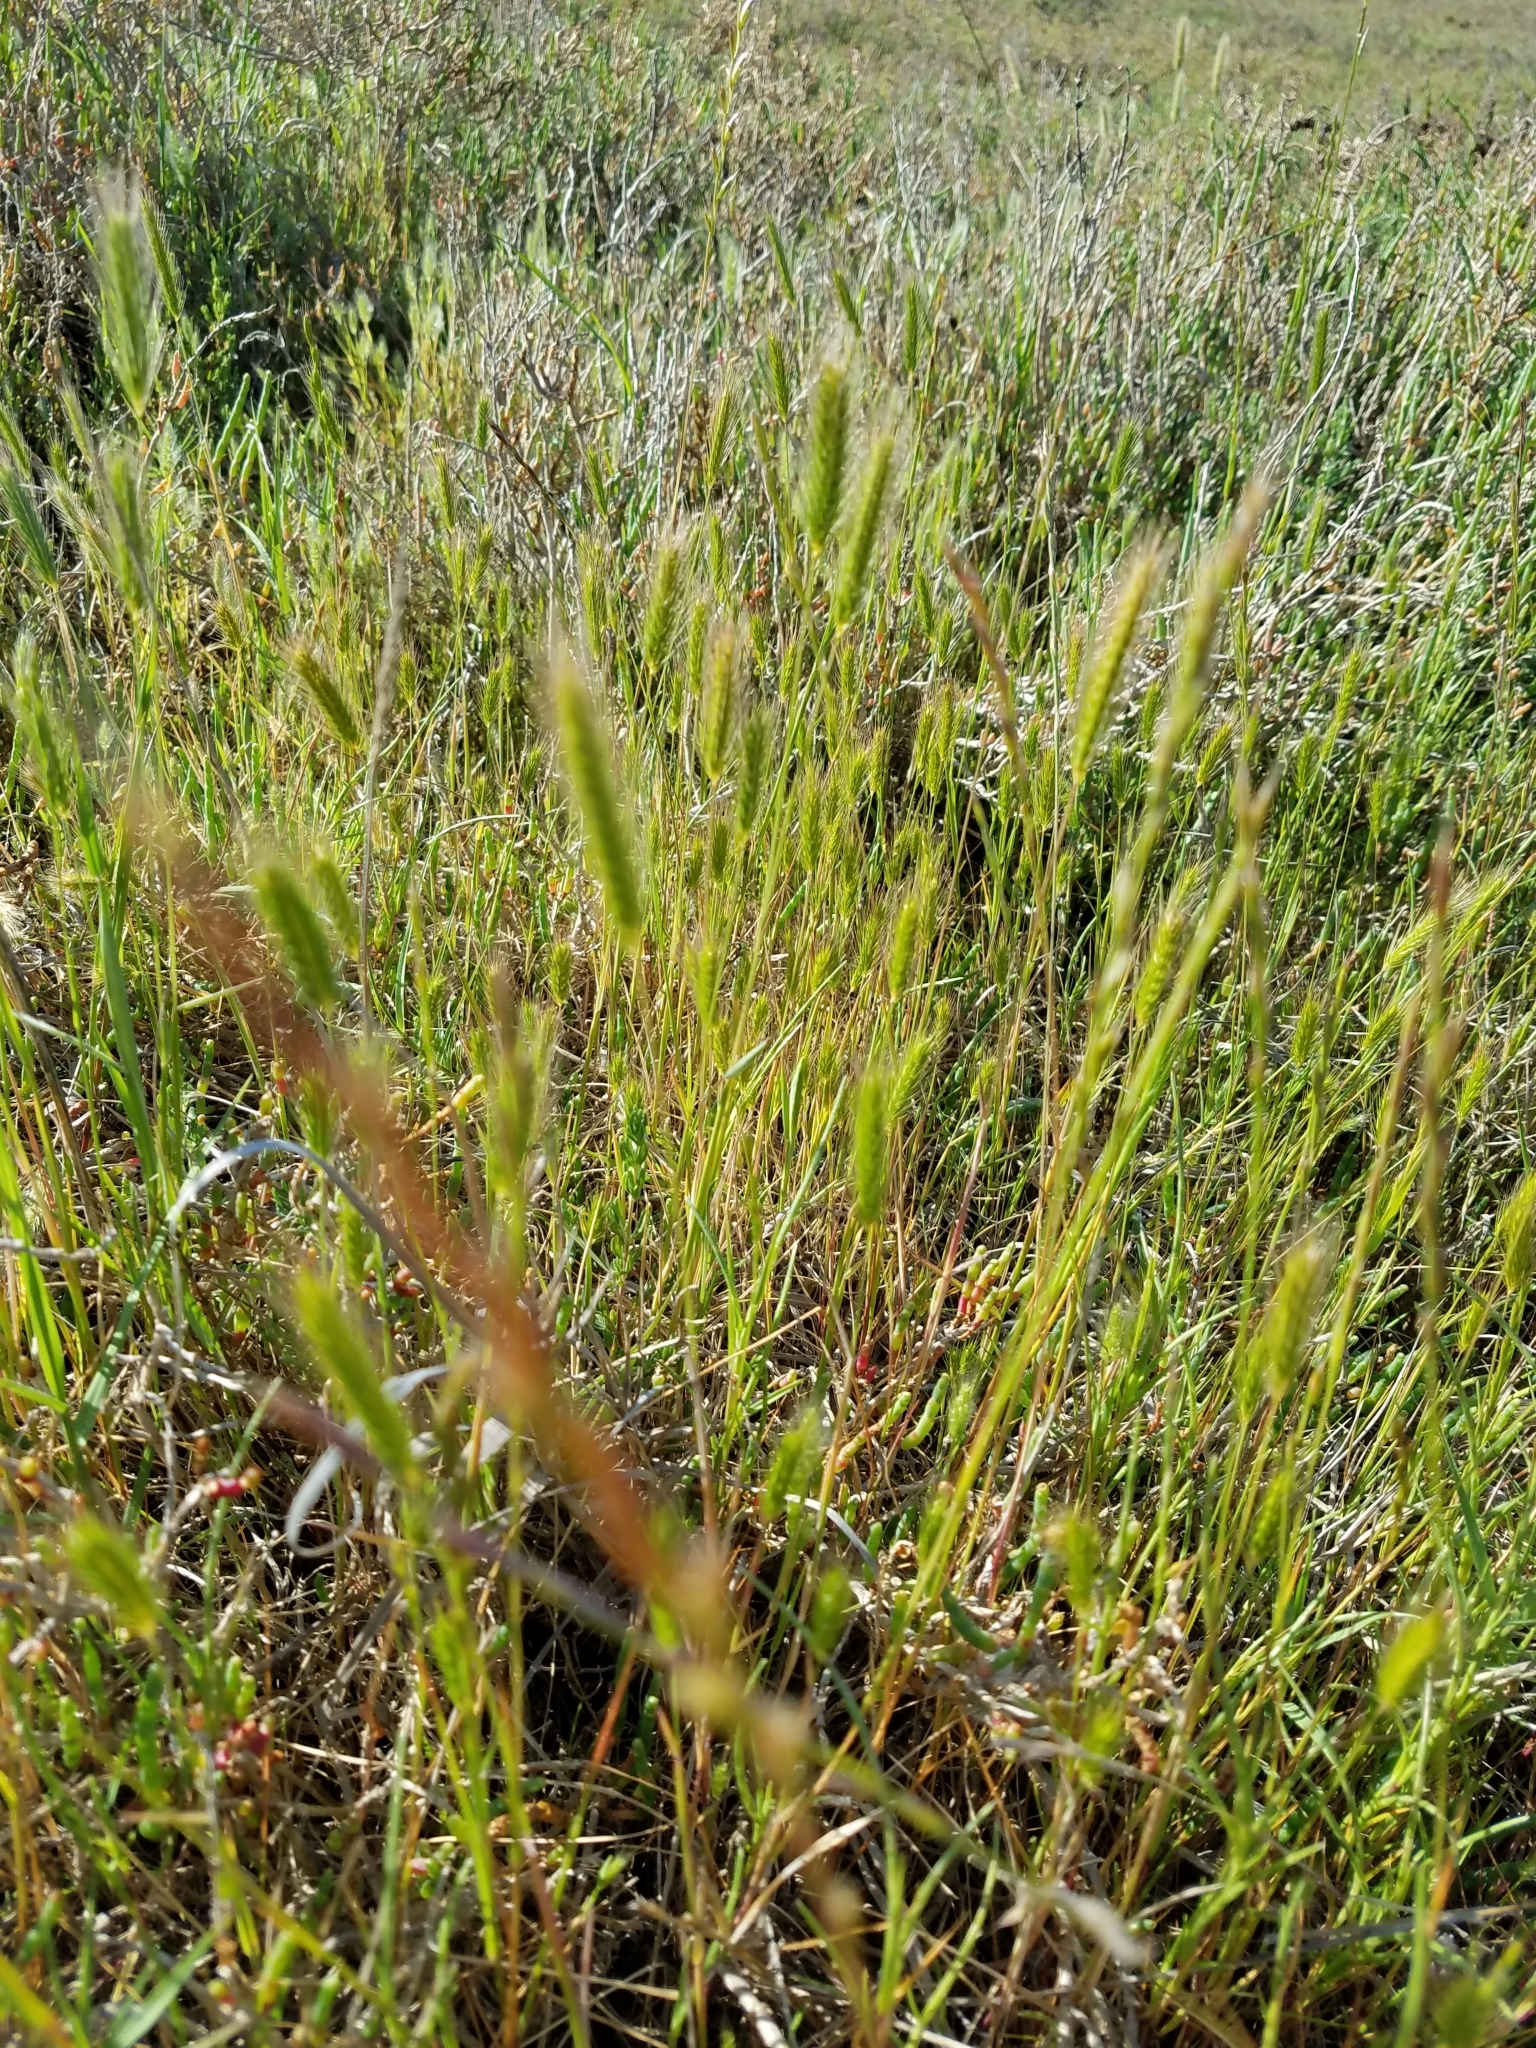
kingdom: Plantae
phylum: Tracheophyta
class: Liliopsida
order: Poales
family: Poaceae
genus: Hordeum
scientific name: Hordeum depressum
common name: Low barley
